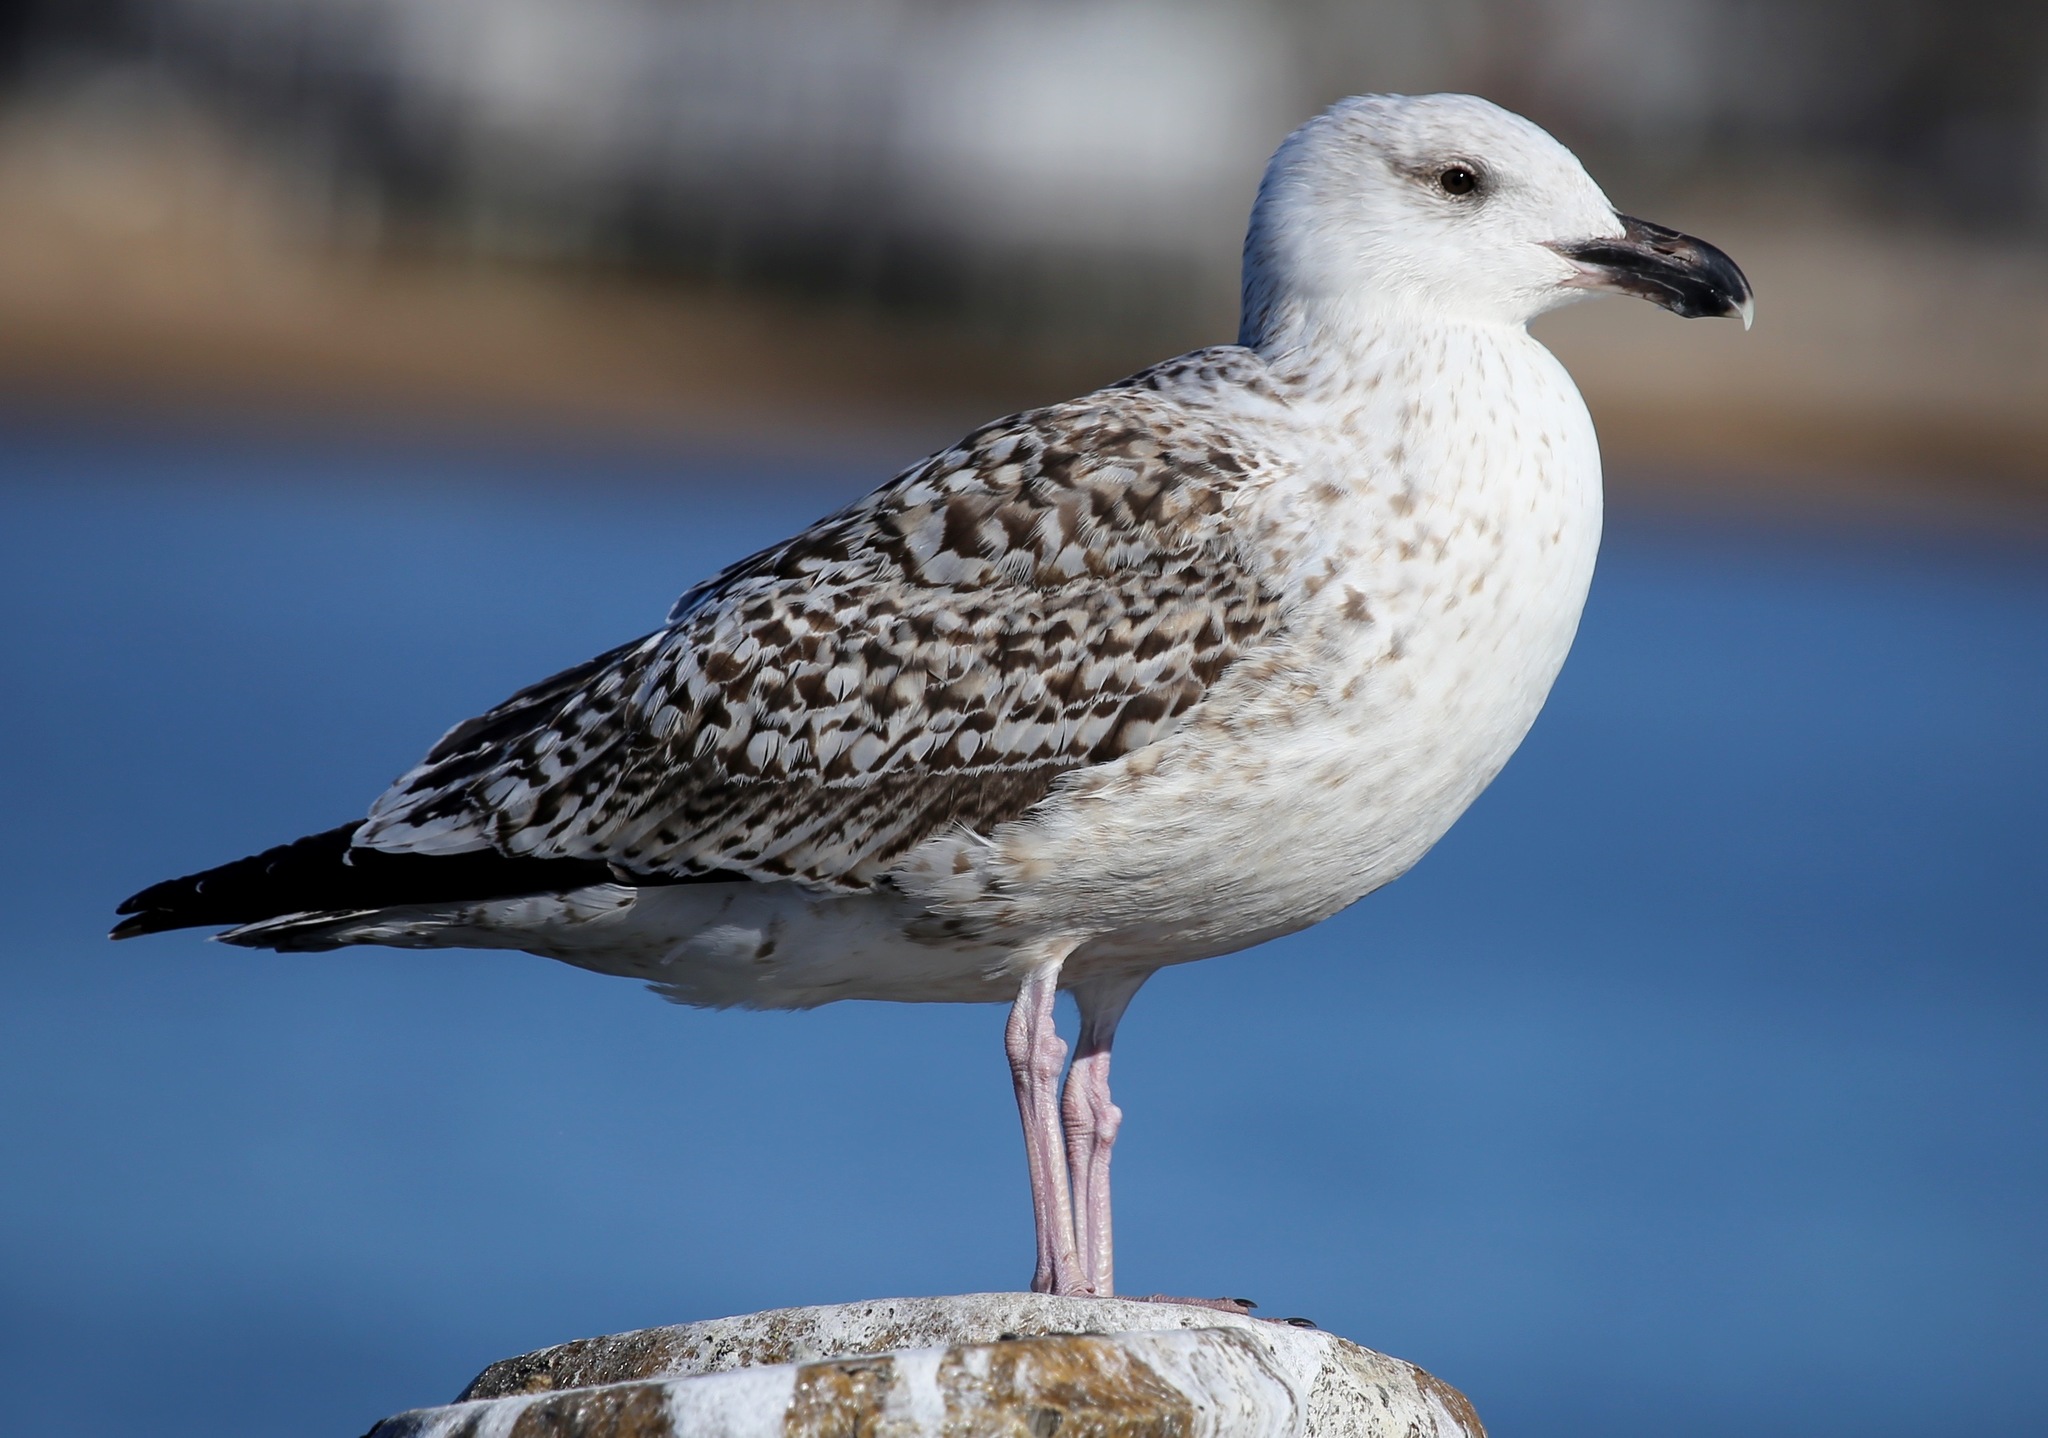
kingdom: Animalia
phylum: Chordata
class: Aves
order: Charadriiformes
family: Laridae
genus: Larus
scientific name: Larus marinus
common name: Great black-backed gull
